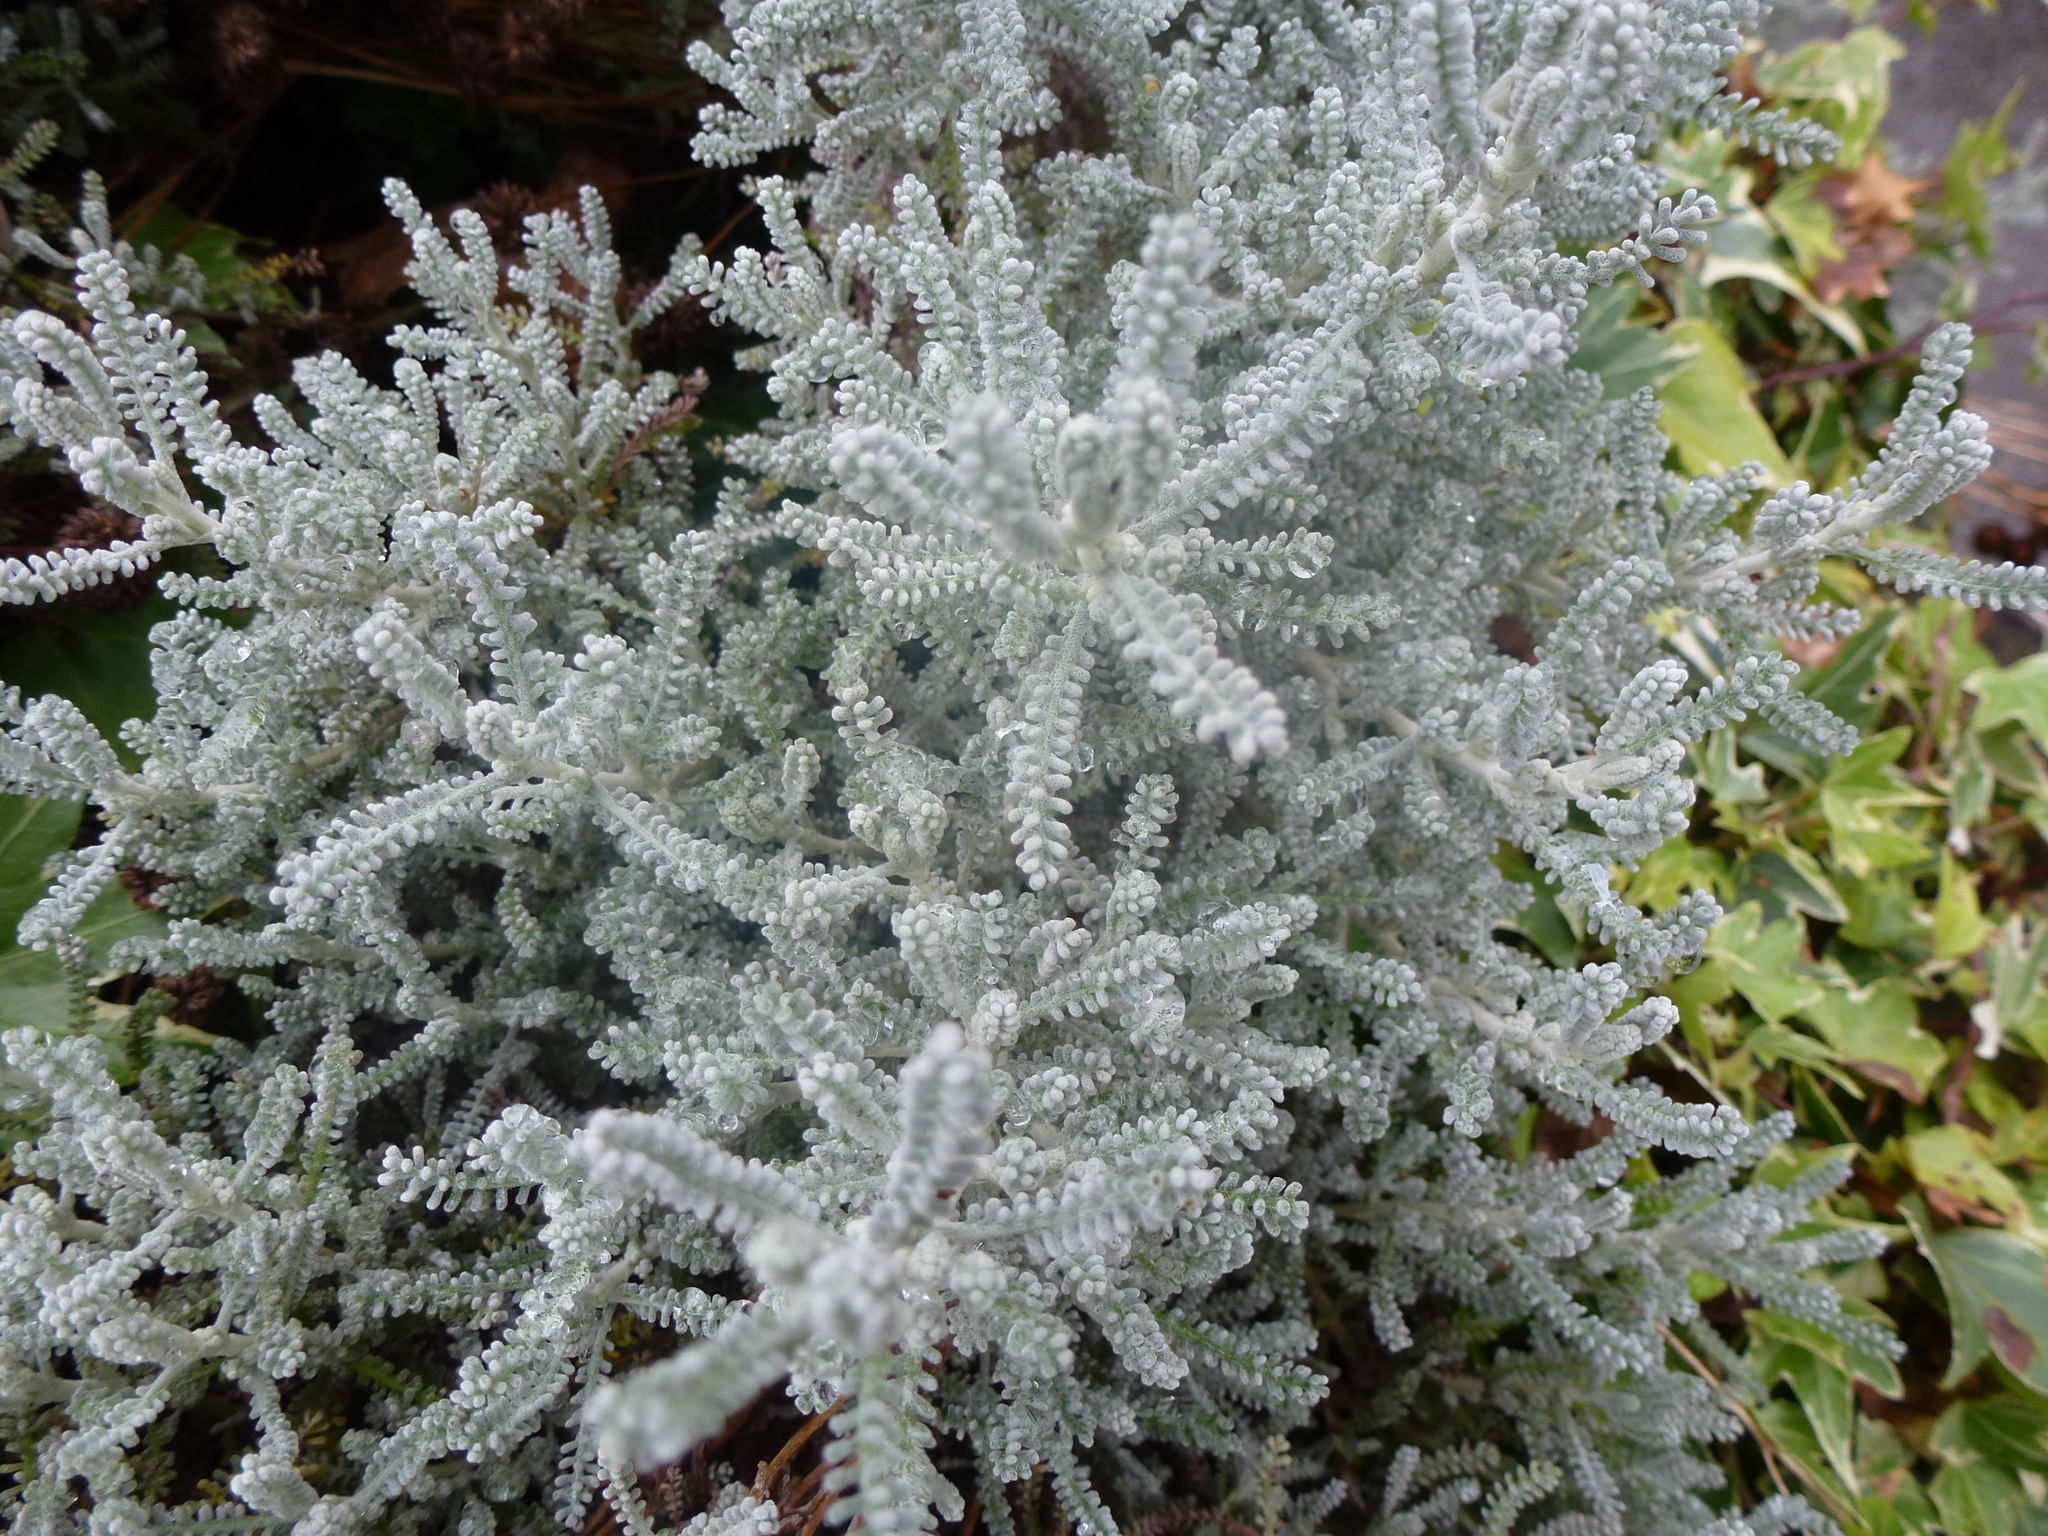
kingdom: Plantae
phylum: Tracheophyta
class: Magnoliopsida
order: Asterales
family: Asteraceae
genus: Santolina
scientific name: Santolina chamaecyparissus
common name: Lavender-cotton
